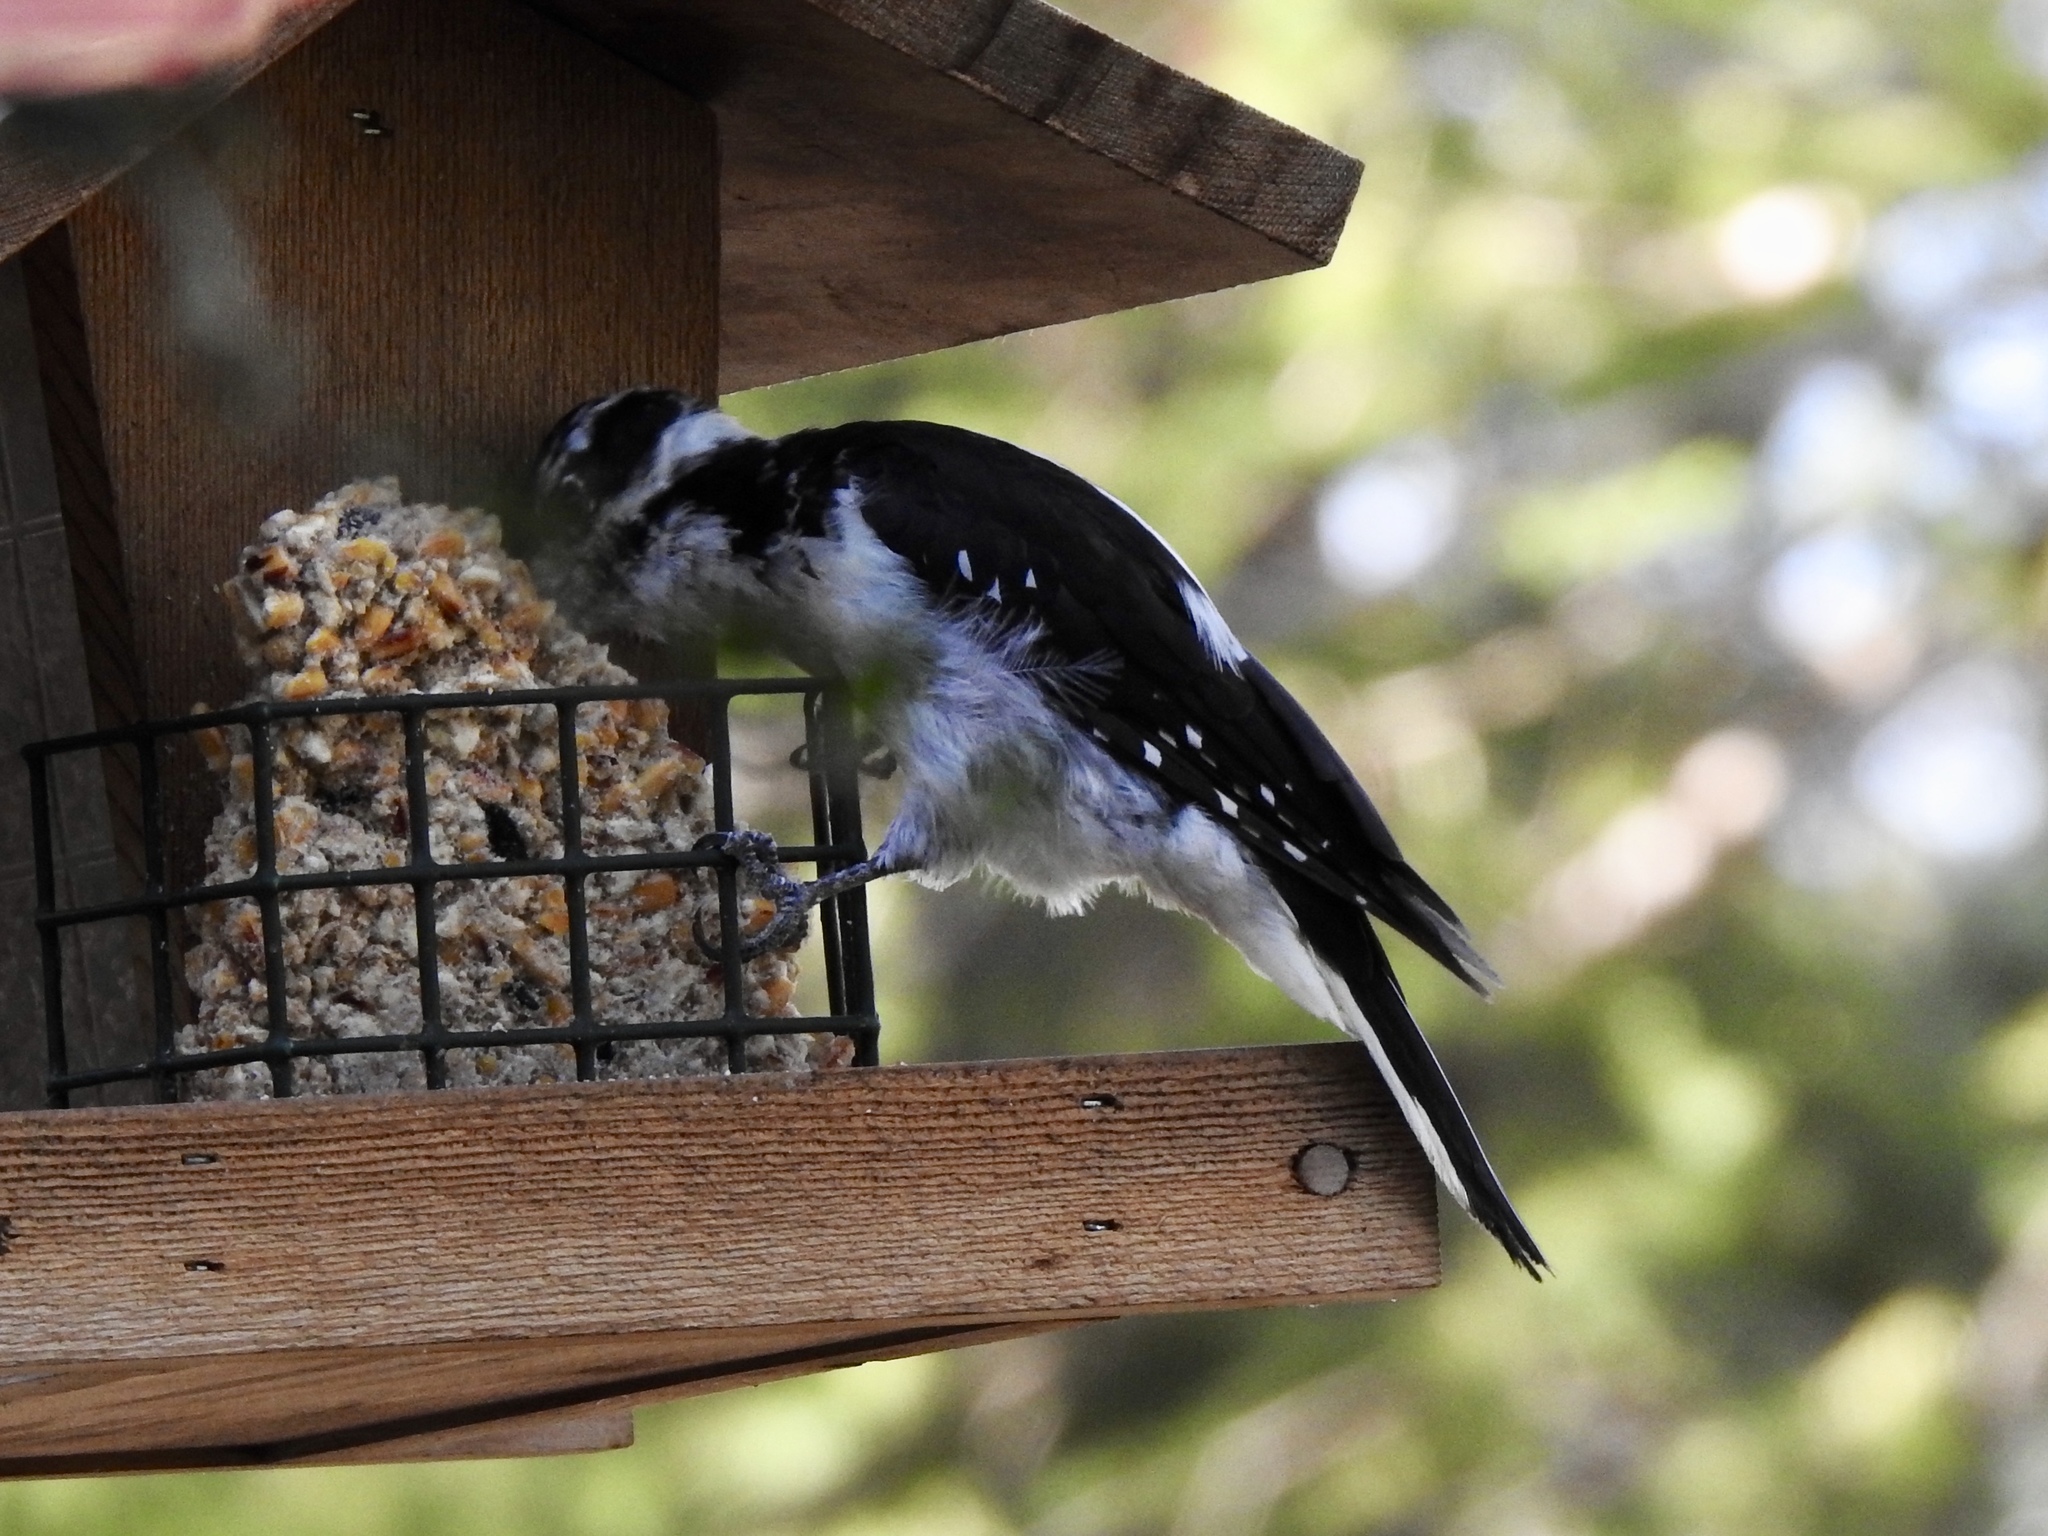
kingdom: Animalia
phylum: Chordata
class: Aves
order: Piciformes
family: Picidae
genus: Leuconotopicus
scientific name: Leuconotopicus villosus
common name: Hairy woodpecker
